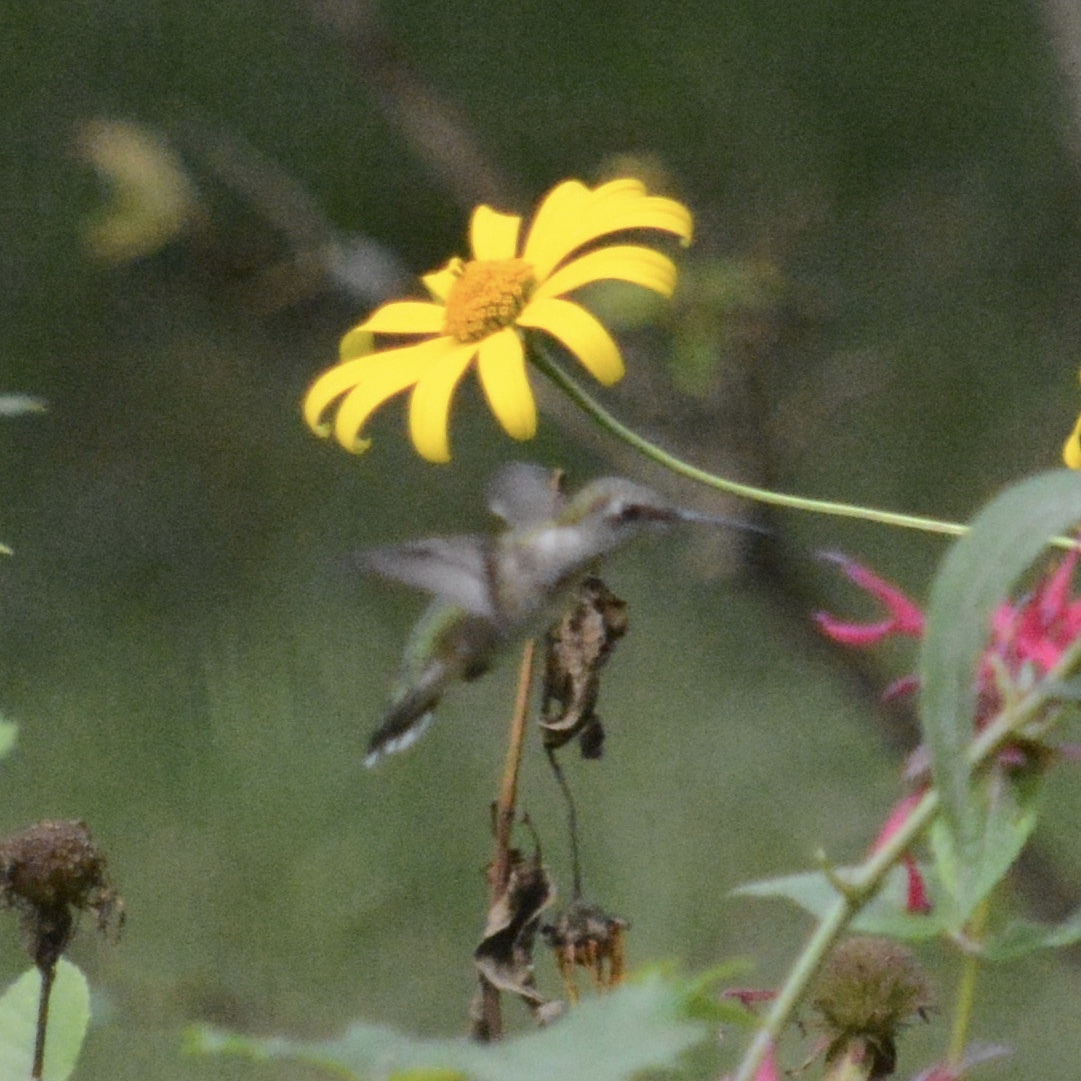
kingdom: Animalia
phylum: Chordata
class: Aves
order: Apodiformes
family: Trochilidae
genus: Archilochus
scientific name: Archilochus colubris
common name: Ruby-throated hummingbird
